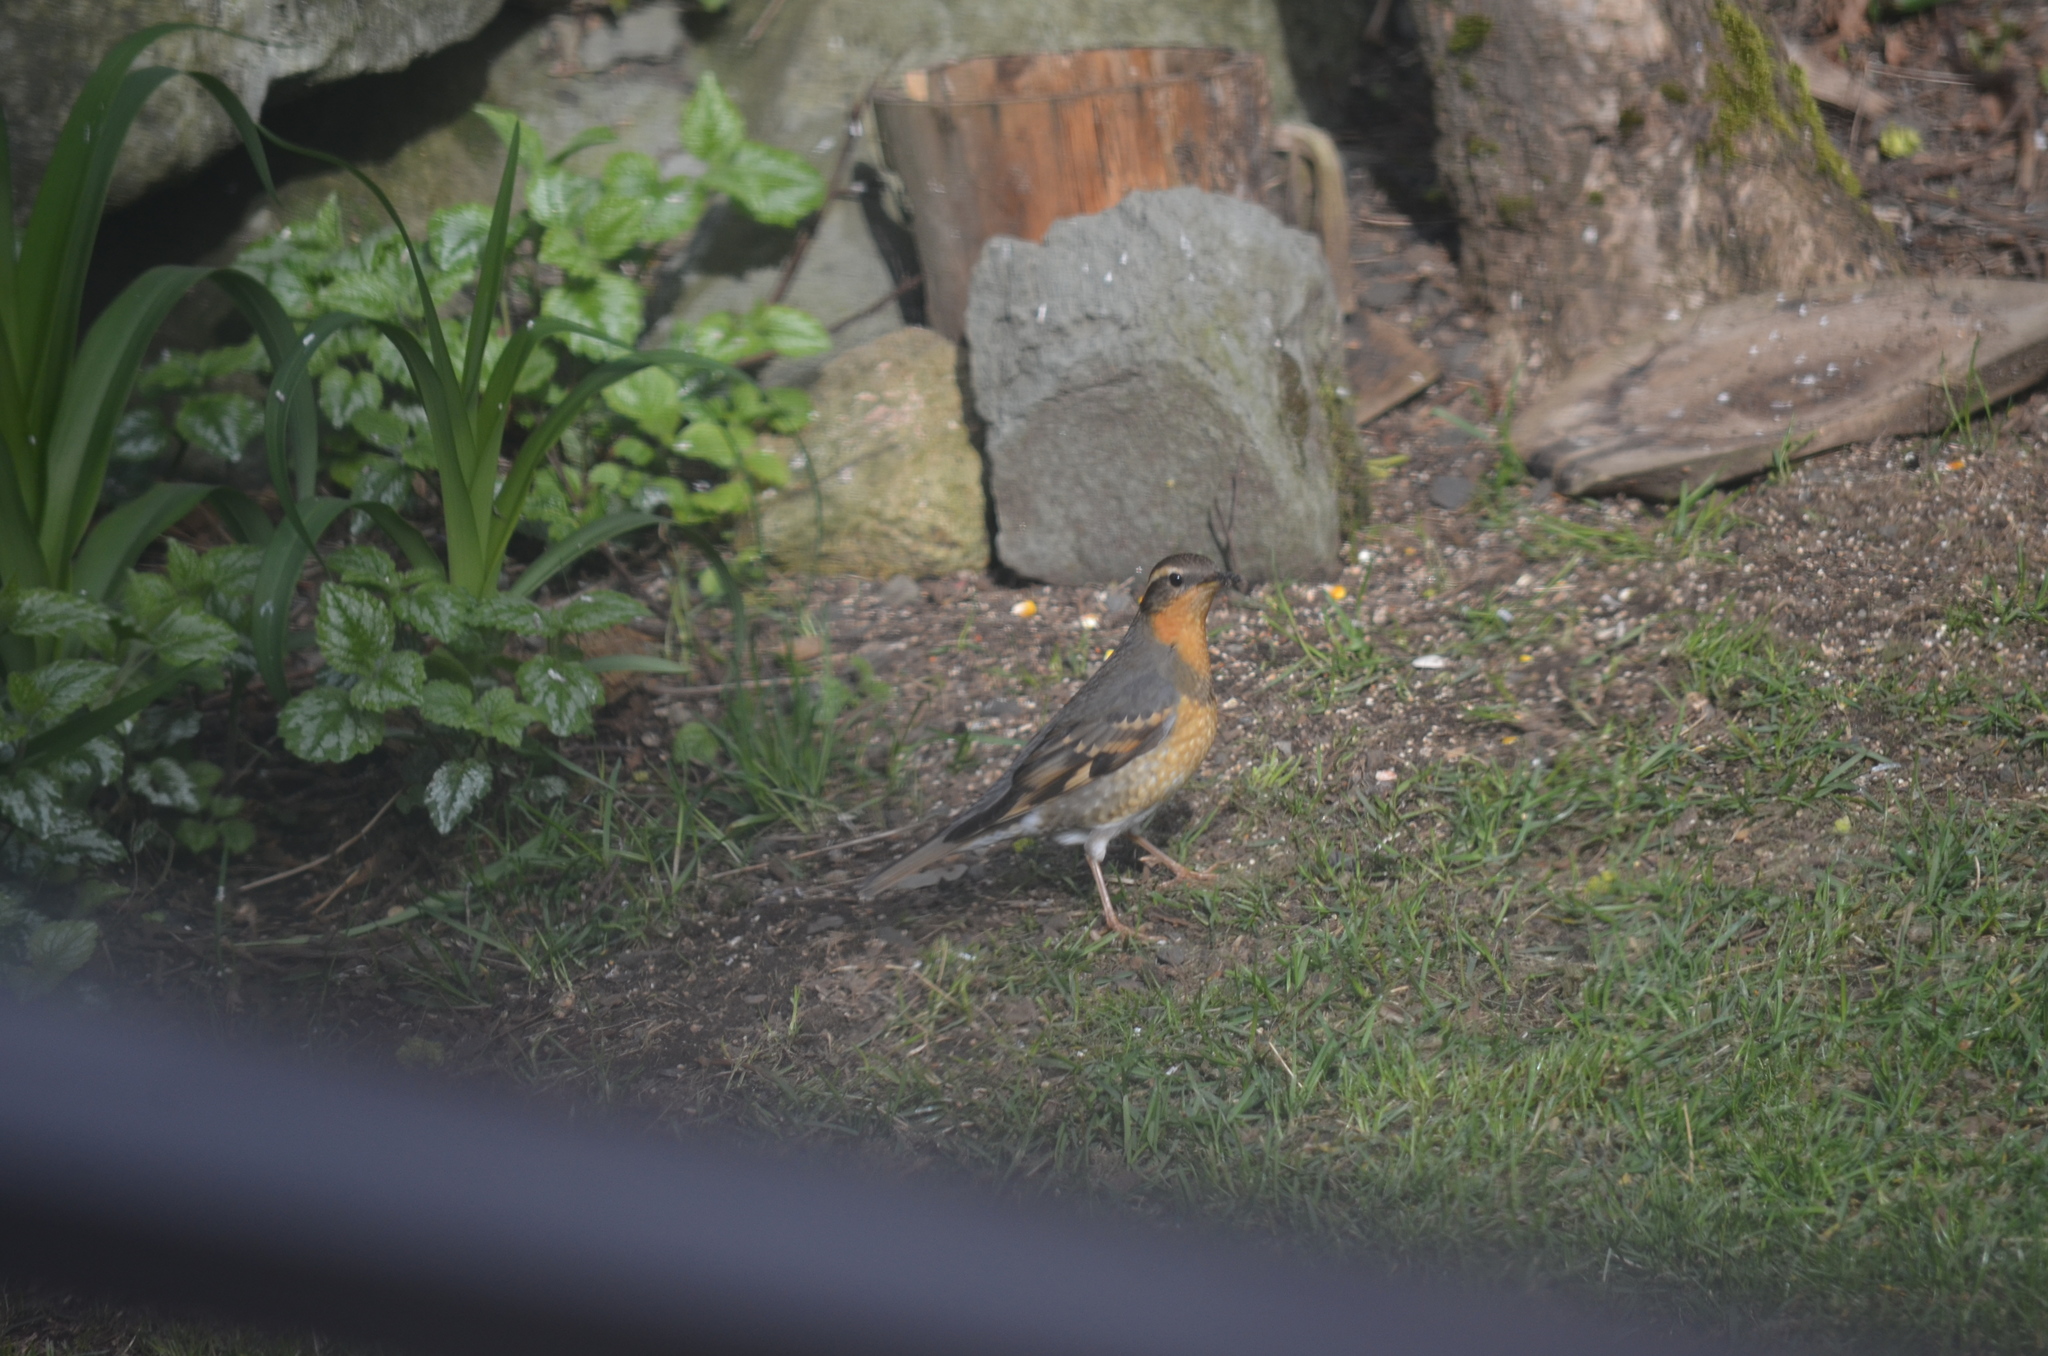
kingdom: Animalia
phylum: Chordata
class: Aves
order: Passeriformes
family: Turdidae
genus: Ixoreus
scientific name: Ixoreus naevius
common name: Varied thrush
